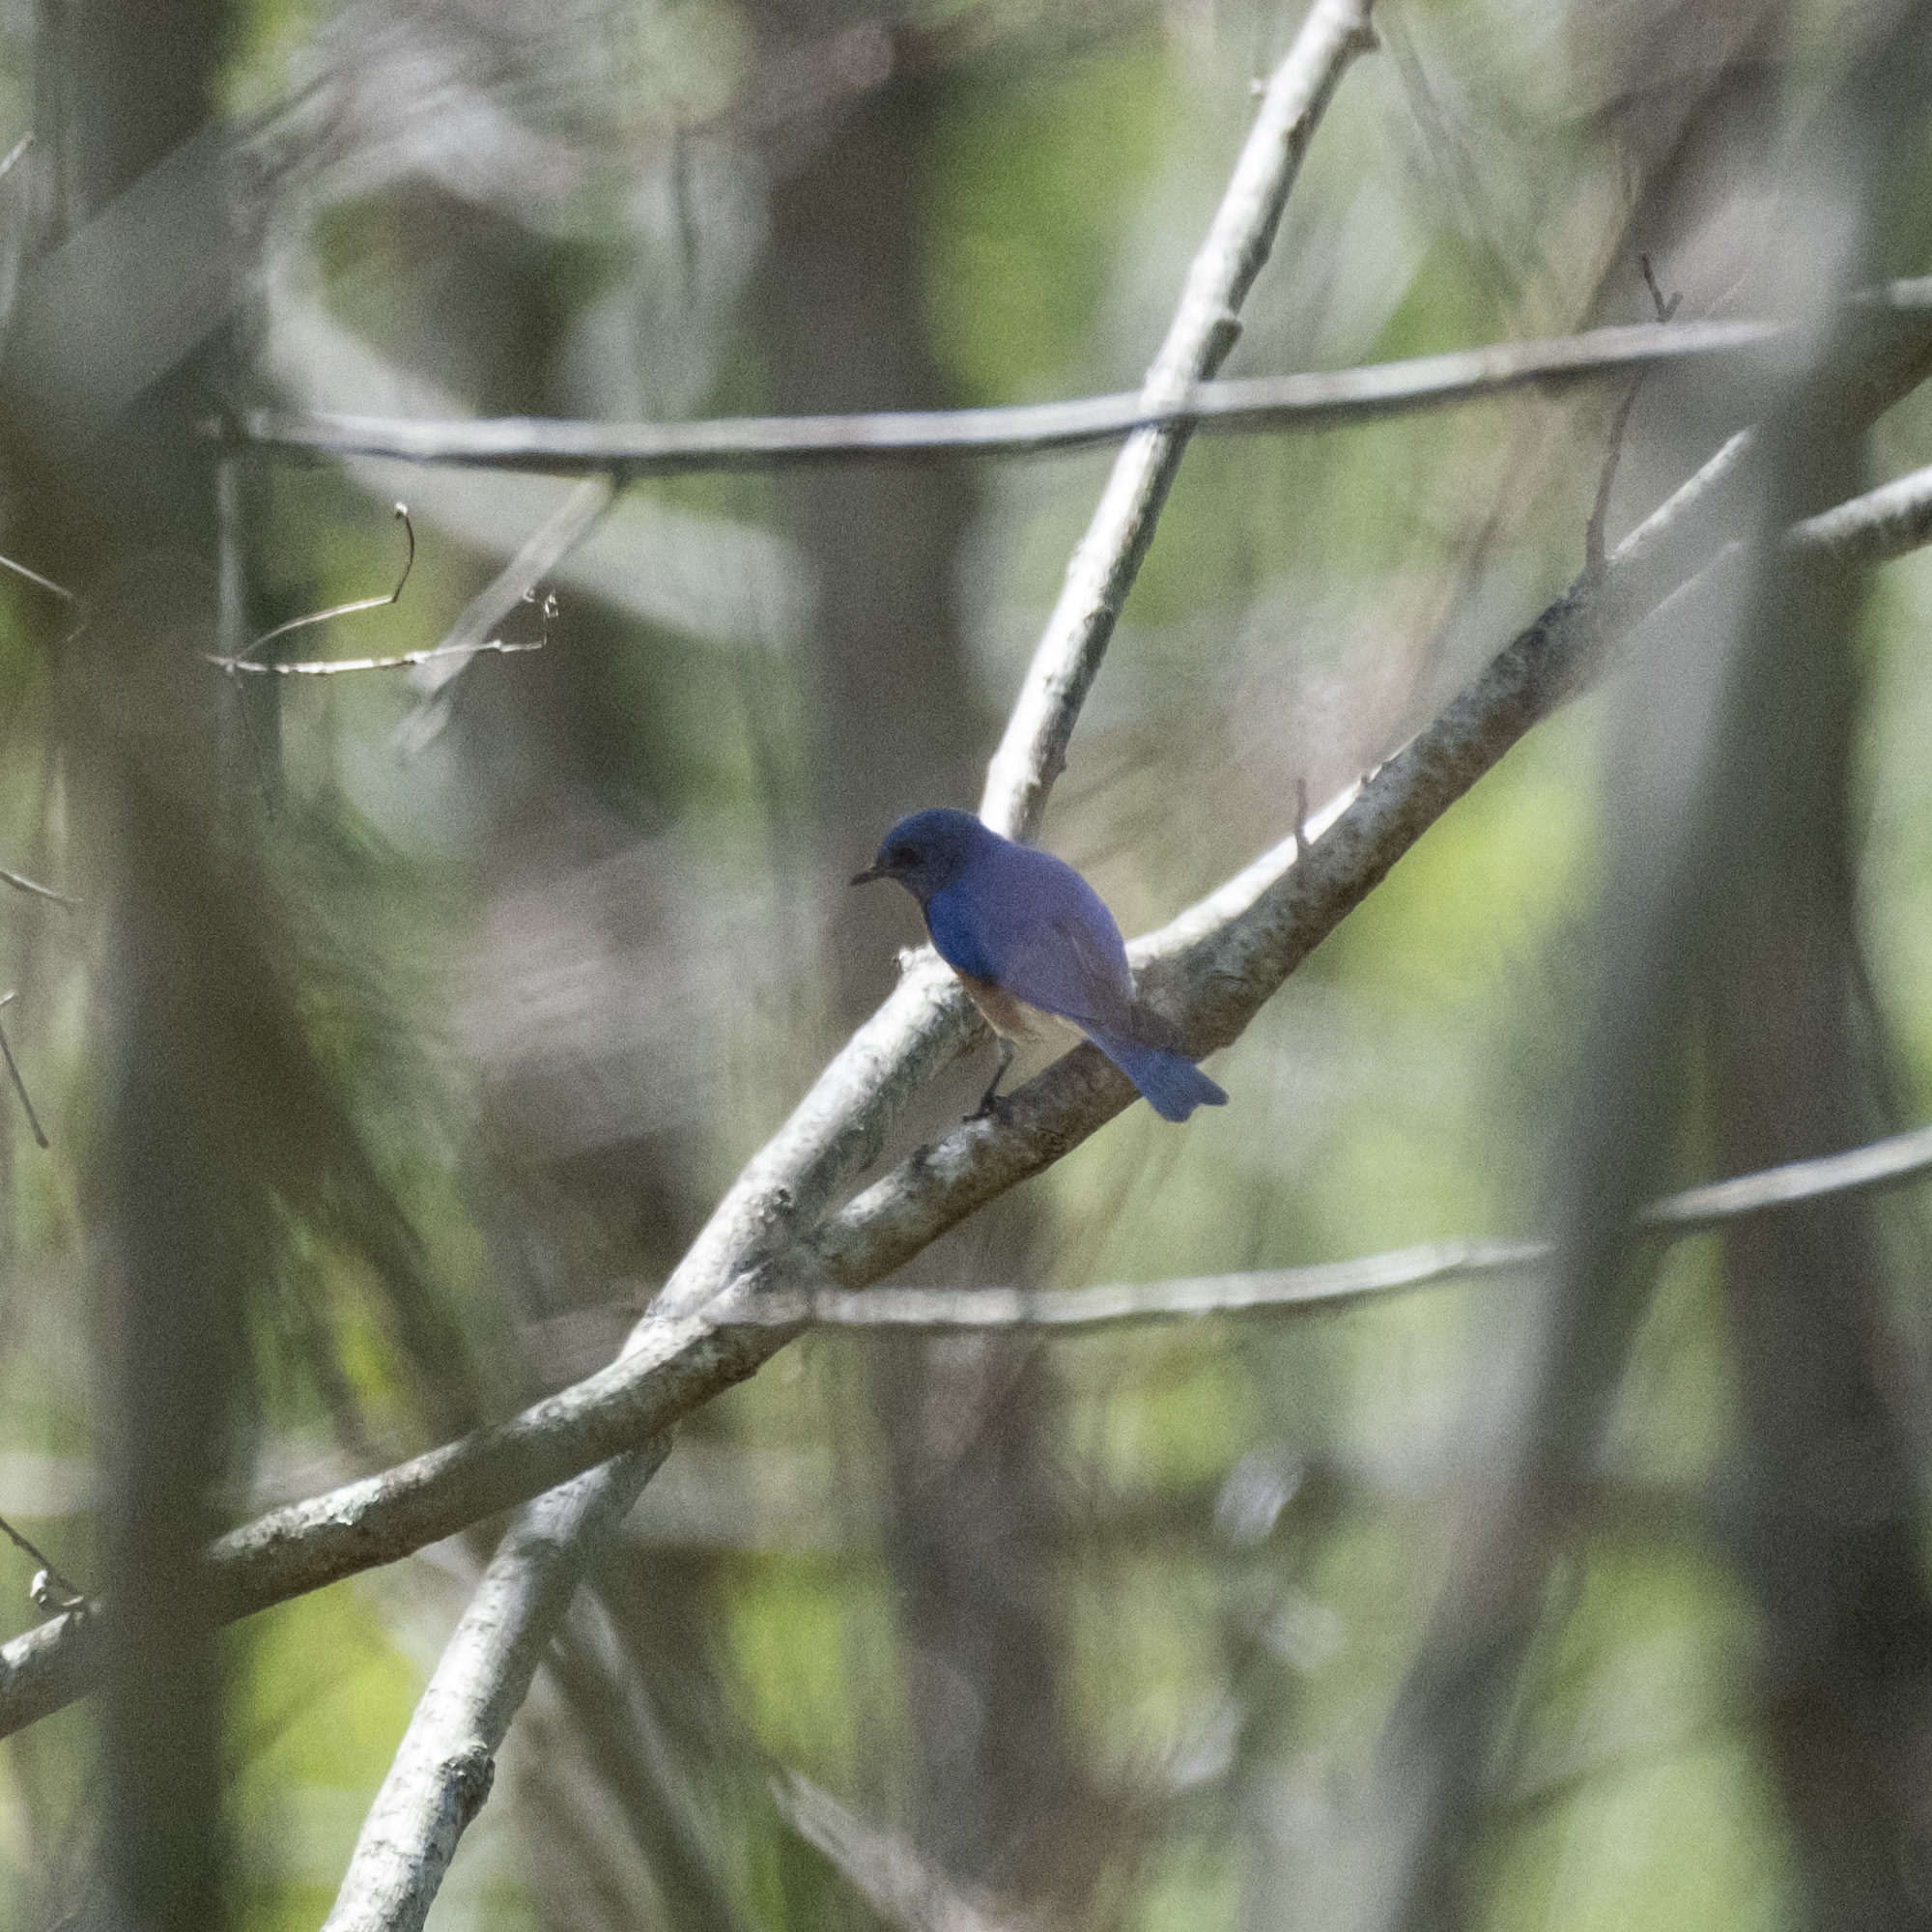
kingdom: Animalia
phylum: Chordata
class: Aves
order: Passeriformes
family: Turdidae
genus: Sialia
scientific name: Sialia sialis
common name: Eastern bluebird
